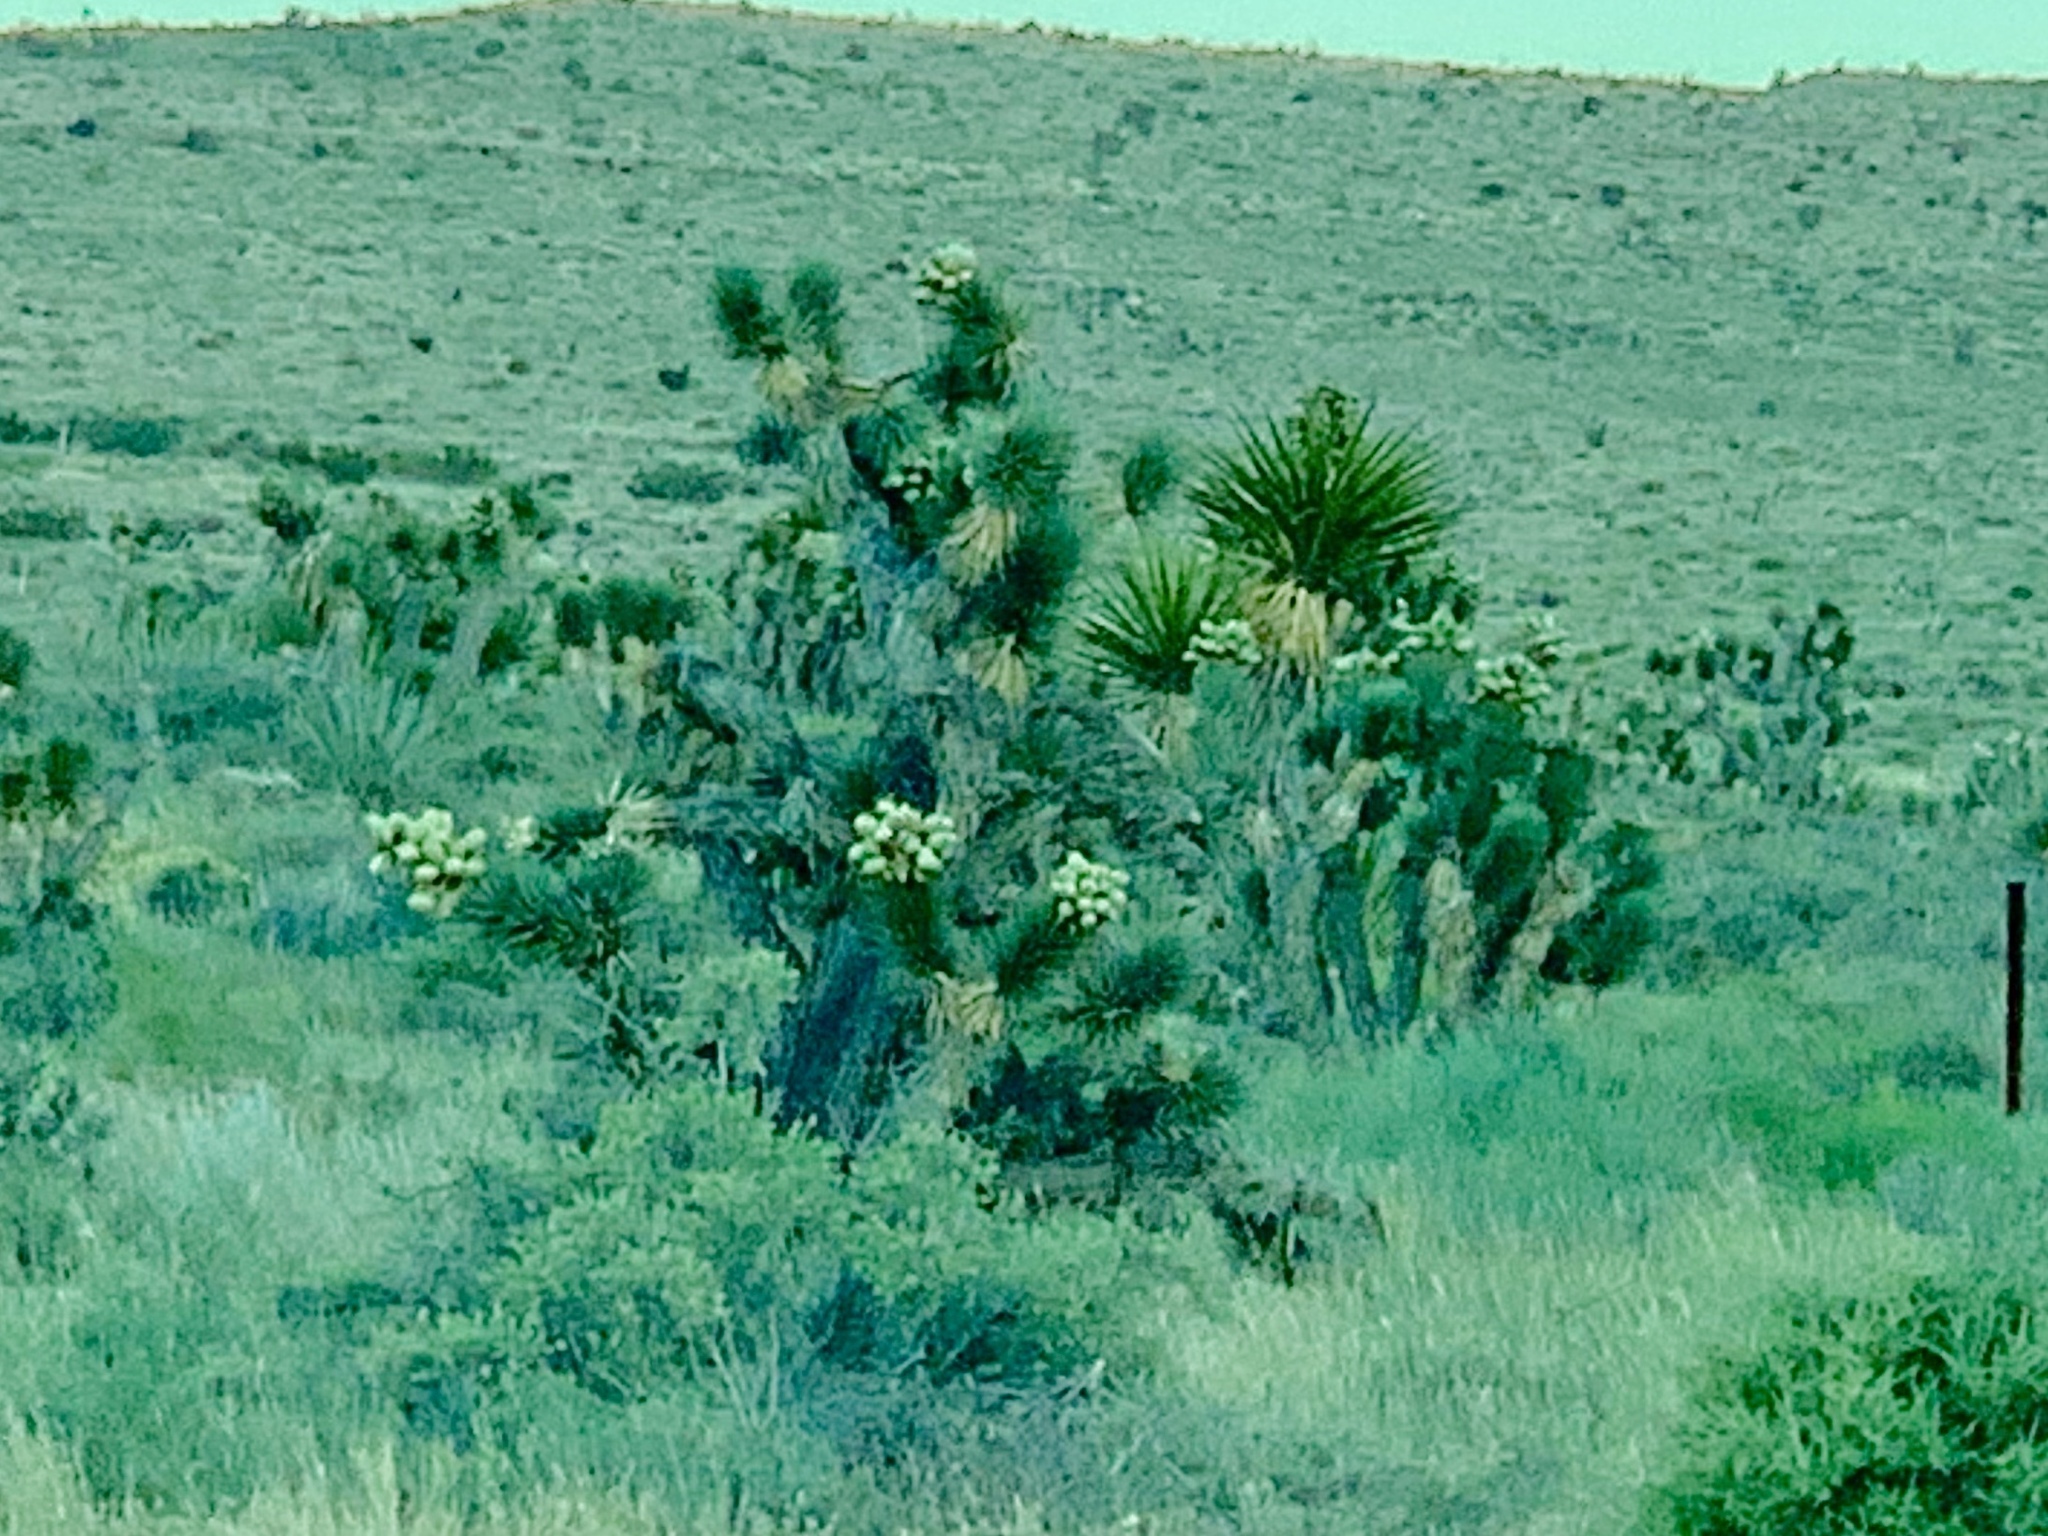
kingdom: Plantae
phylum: Tracheophyta
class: Liliopsida
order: Asparagales
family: Asparagaceae
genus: Yucca
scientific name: Yucca brevifolia
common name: Joshua tree
